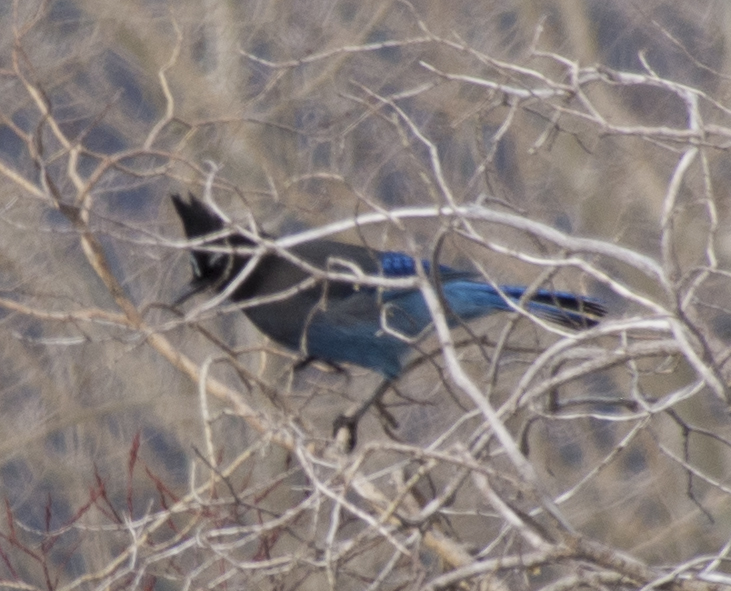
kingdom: Animalia
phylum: Chordata
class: Aves
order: Passeriformes
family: Corvidae
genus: Cyanocitta
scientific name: Cyanocitta stelleri
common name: Steller's jay
